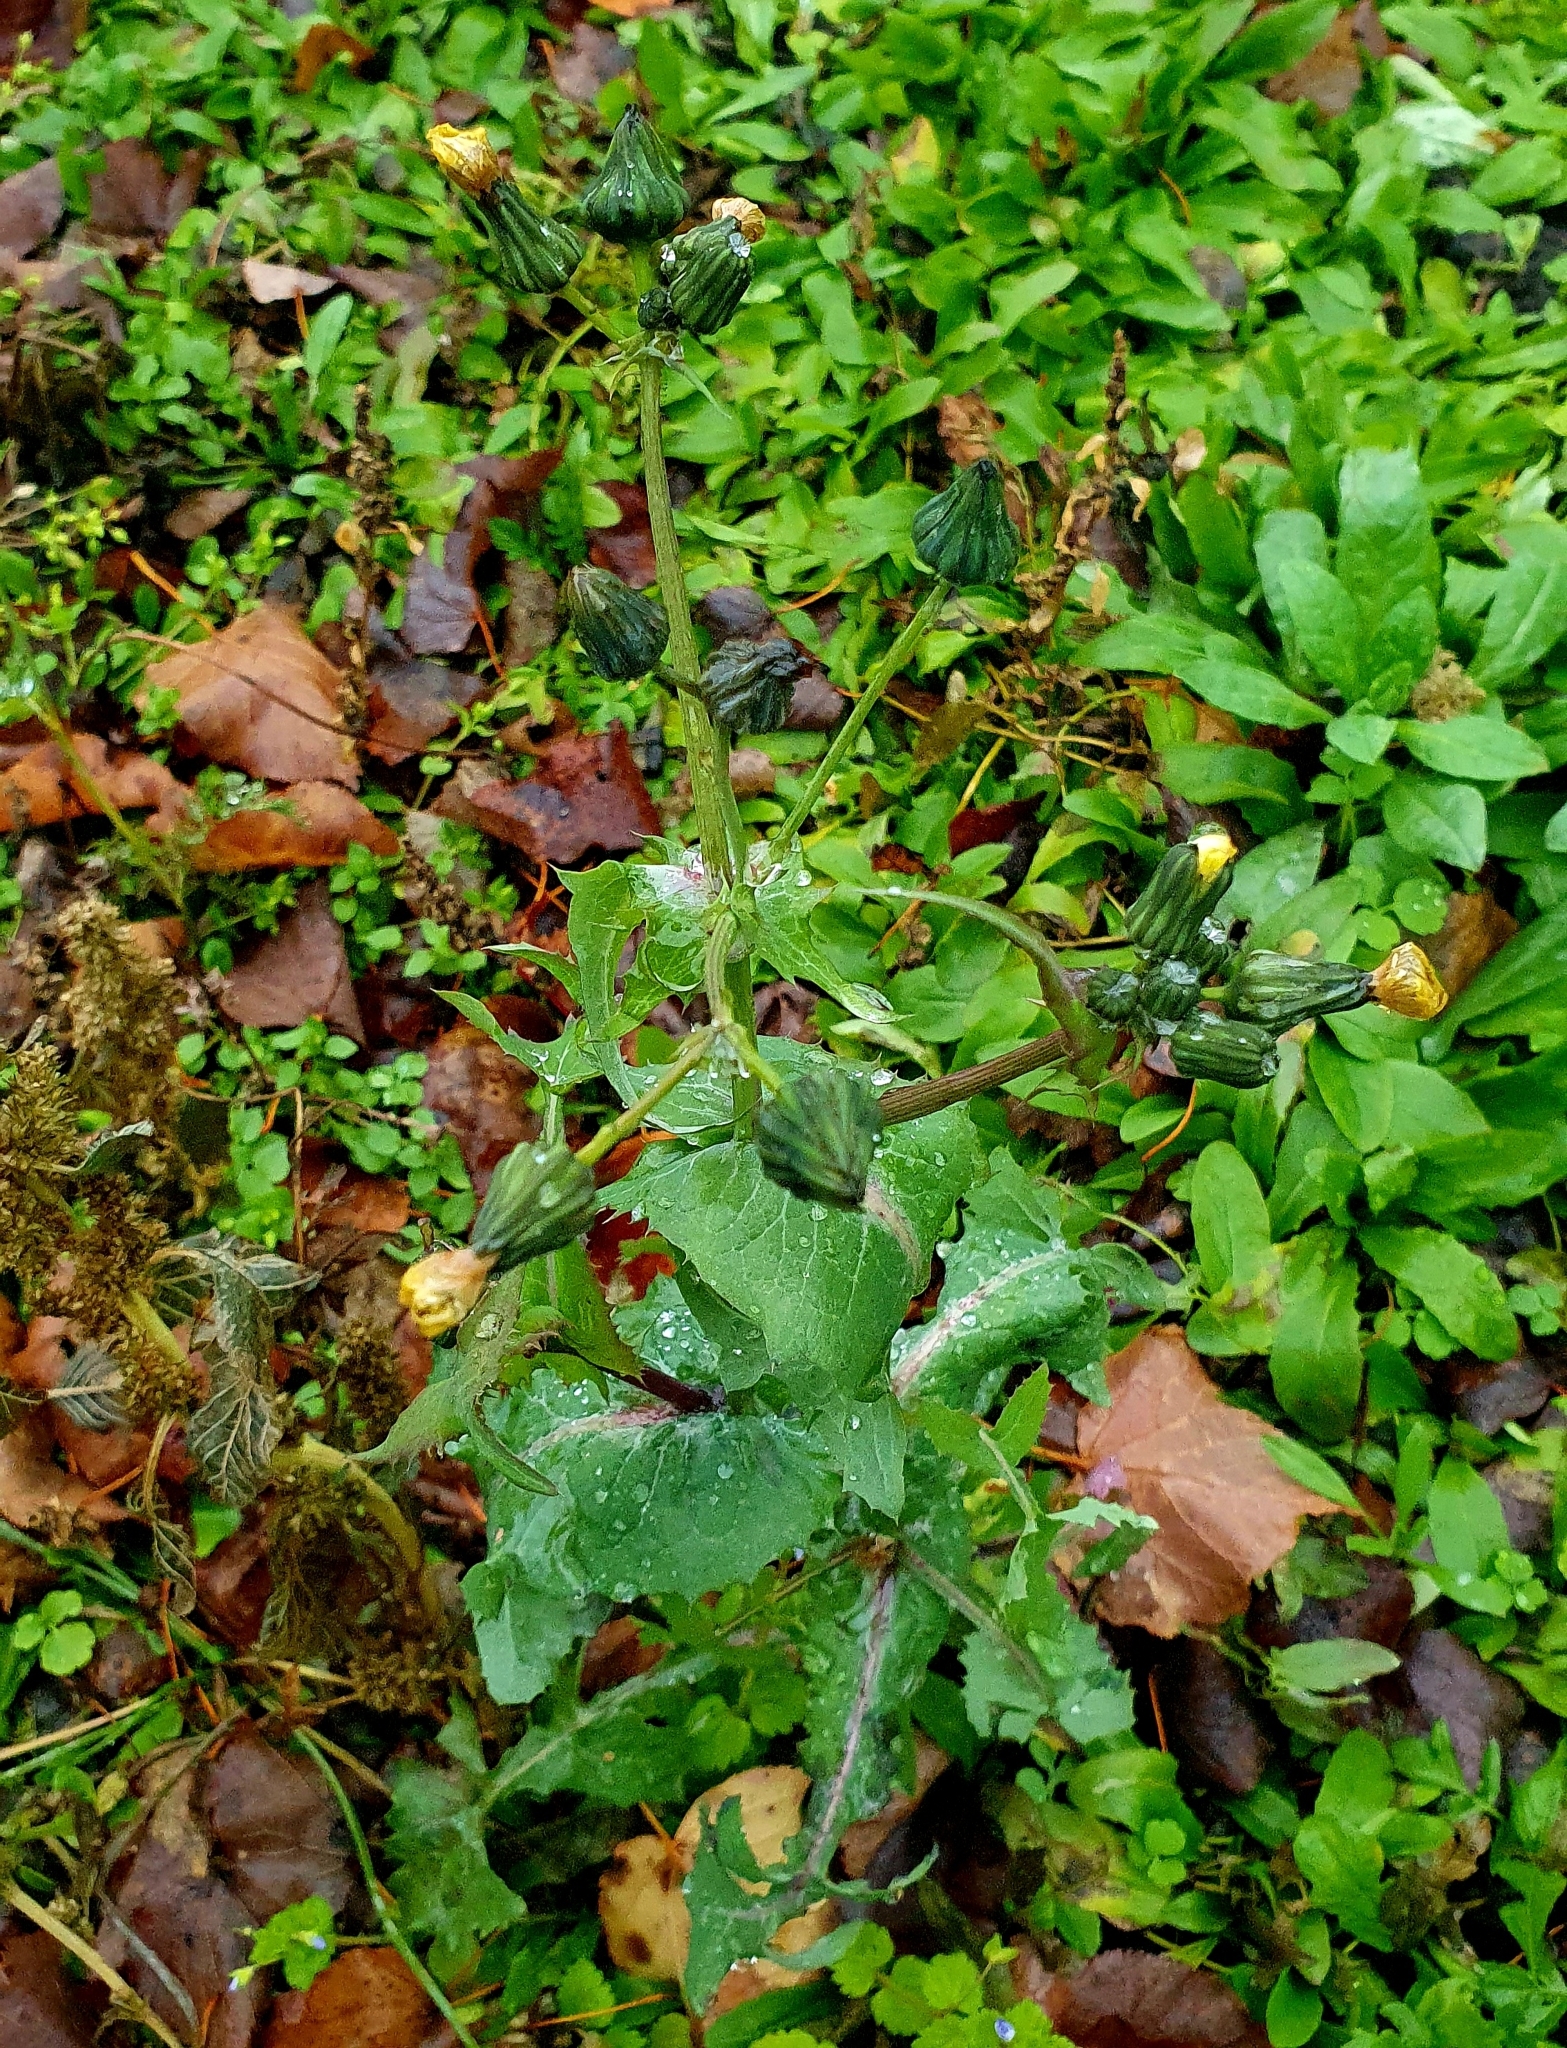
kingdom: Plantae
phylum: Tracheophyta
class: Magnoliopsida
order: Asterales
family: Asteraceae
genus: Sonchus
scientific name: Sonchus oleraceus
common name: Common sowthistle
